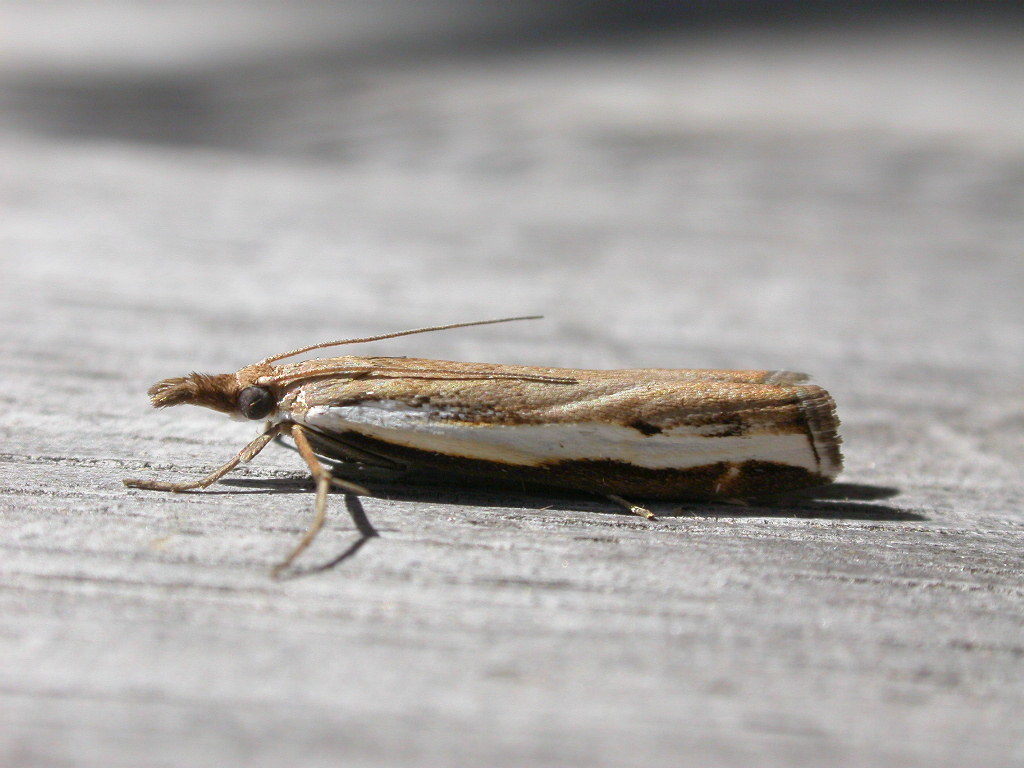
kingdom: Animalia
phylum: Arthropoda
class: Insecta
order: Lepidoptera
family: Crambidae
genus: Orocrambus
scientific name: Orocrambus flexuosellus
